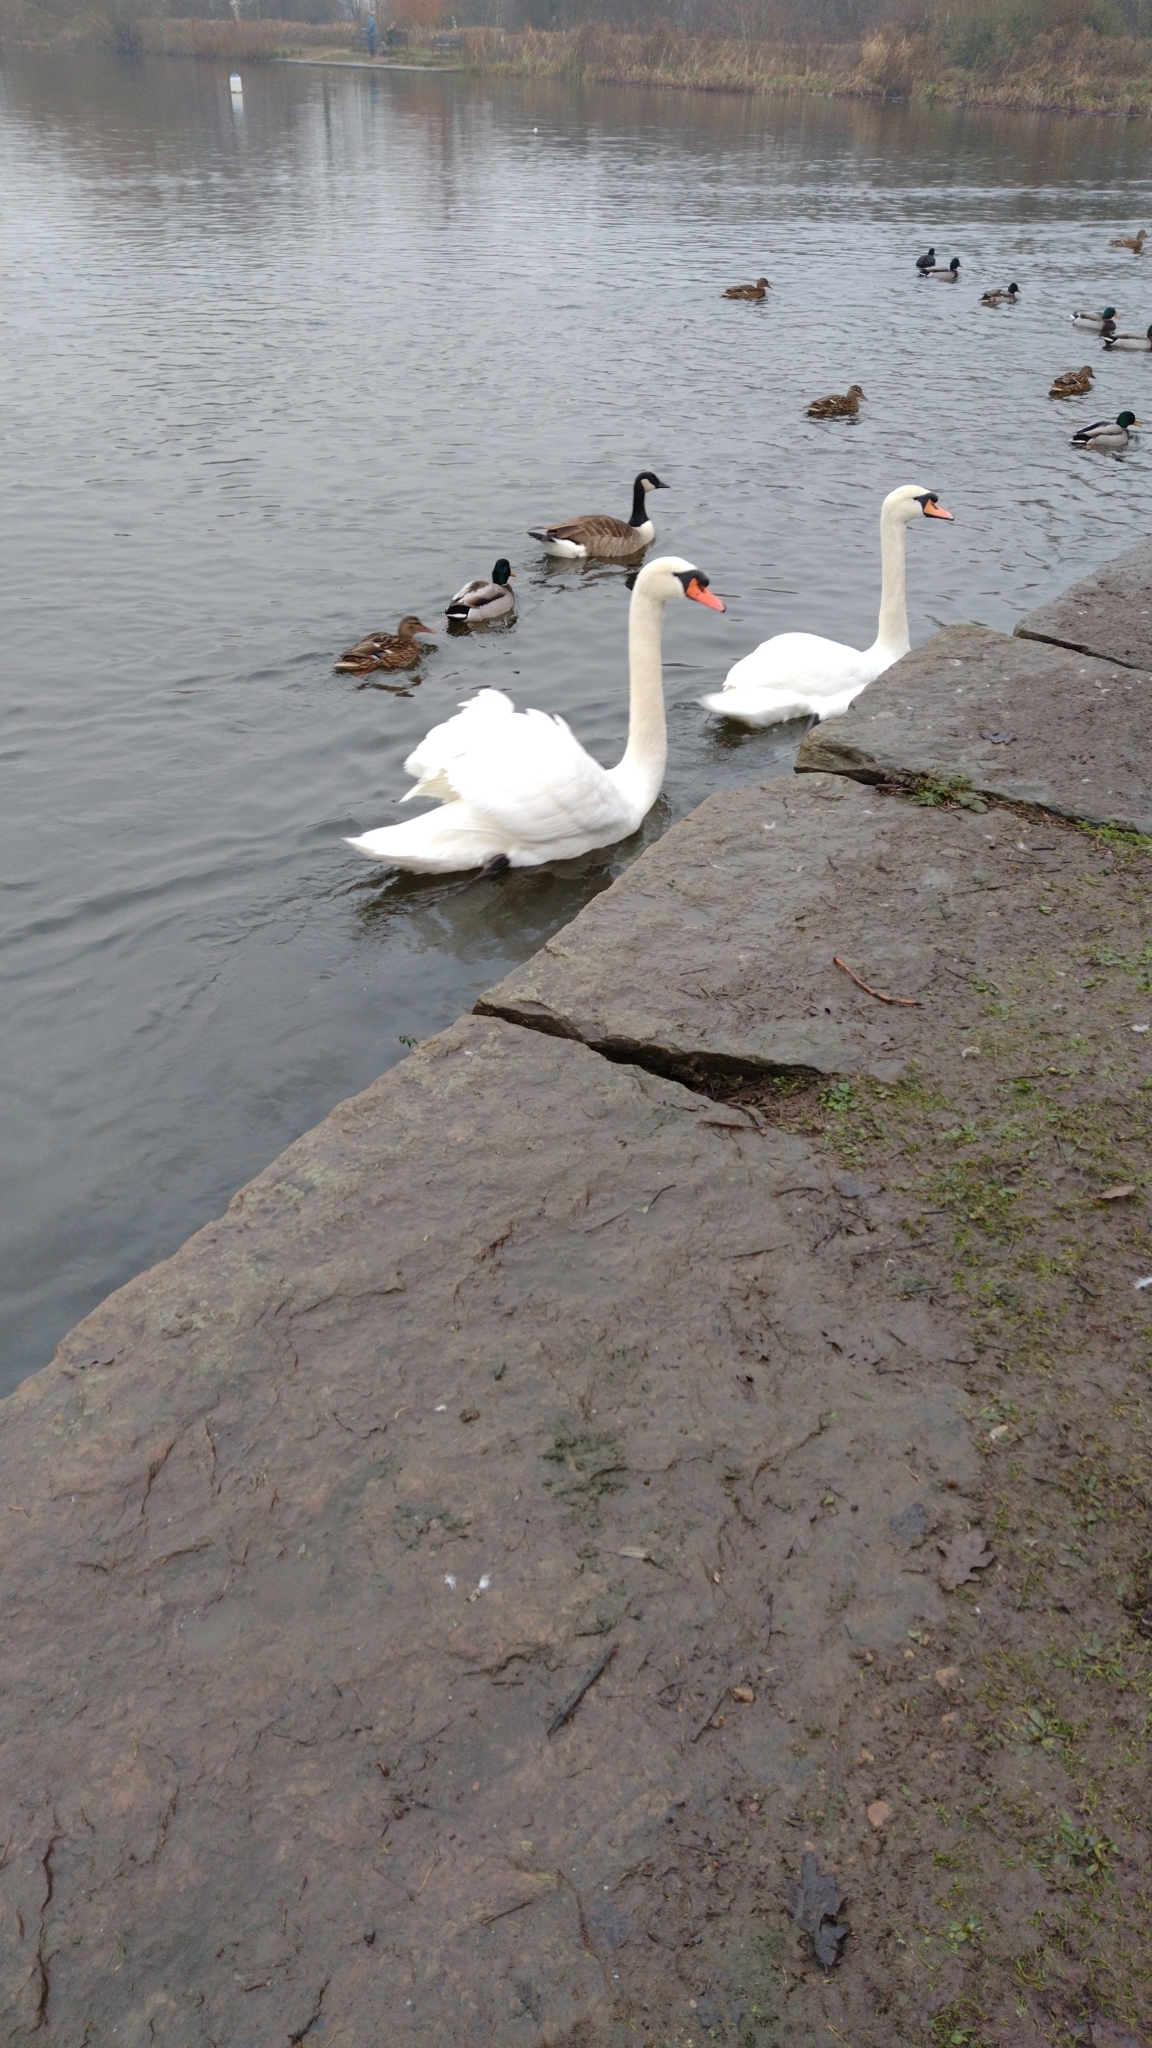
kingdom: Animalia
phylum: Chordata
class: Aves
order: Anseriformes
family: Anatidae
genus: Cygnus
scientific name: Cygnus olor
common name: Mute swan
